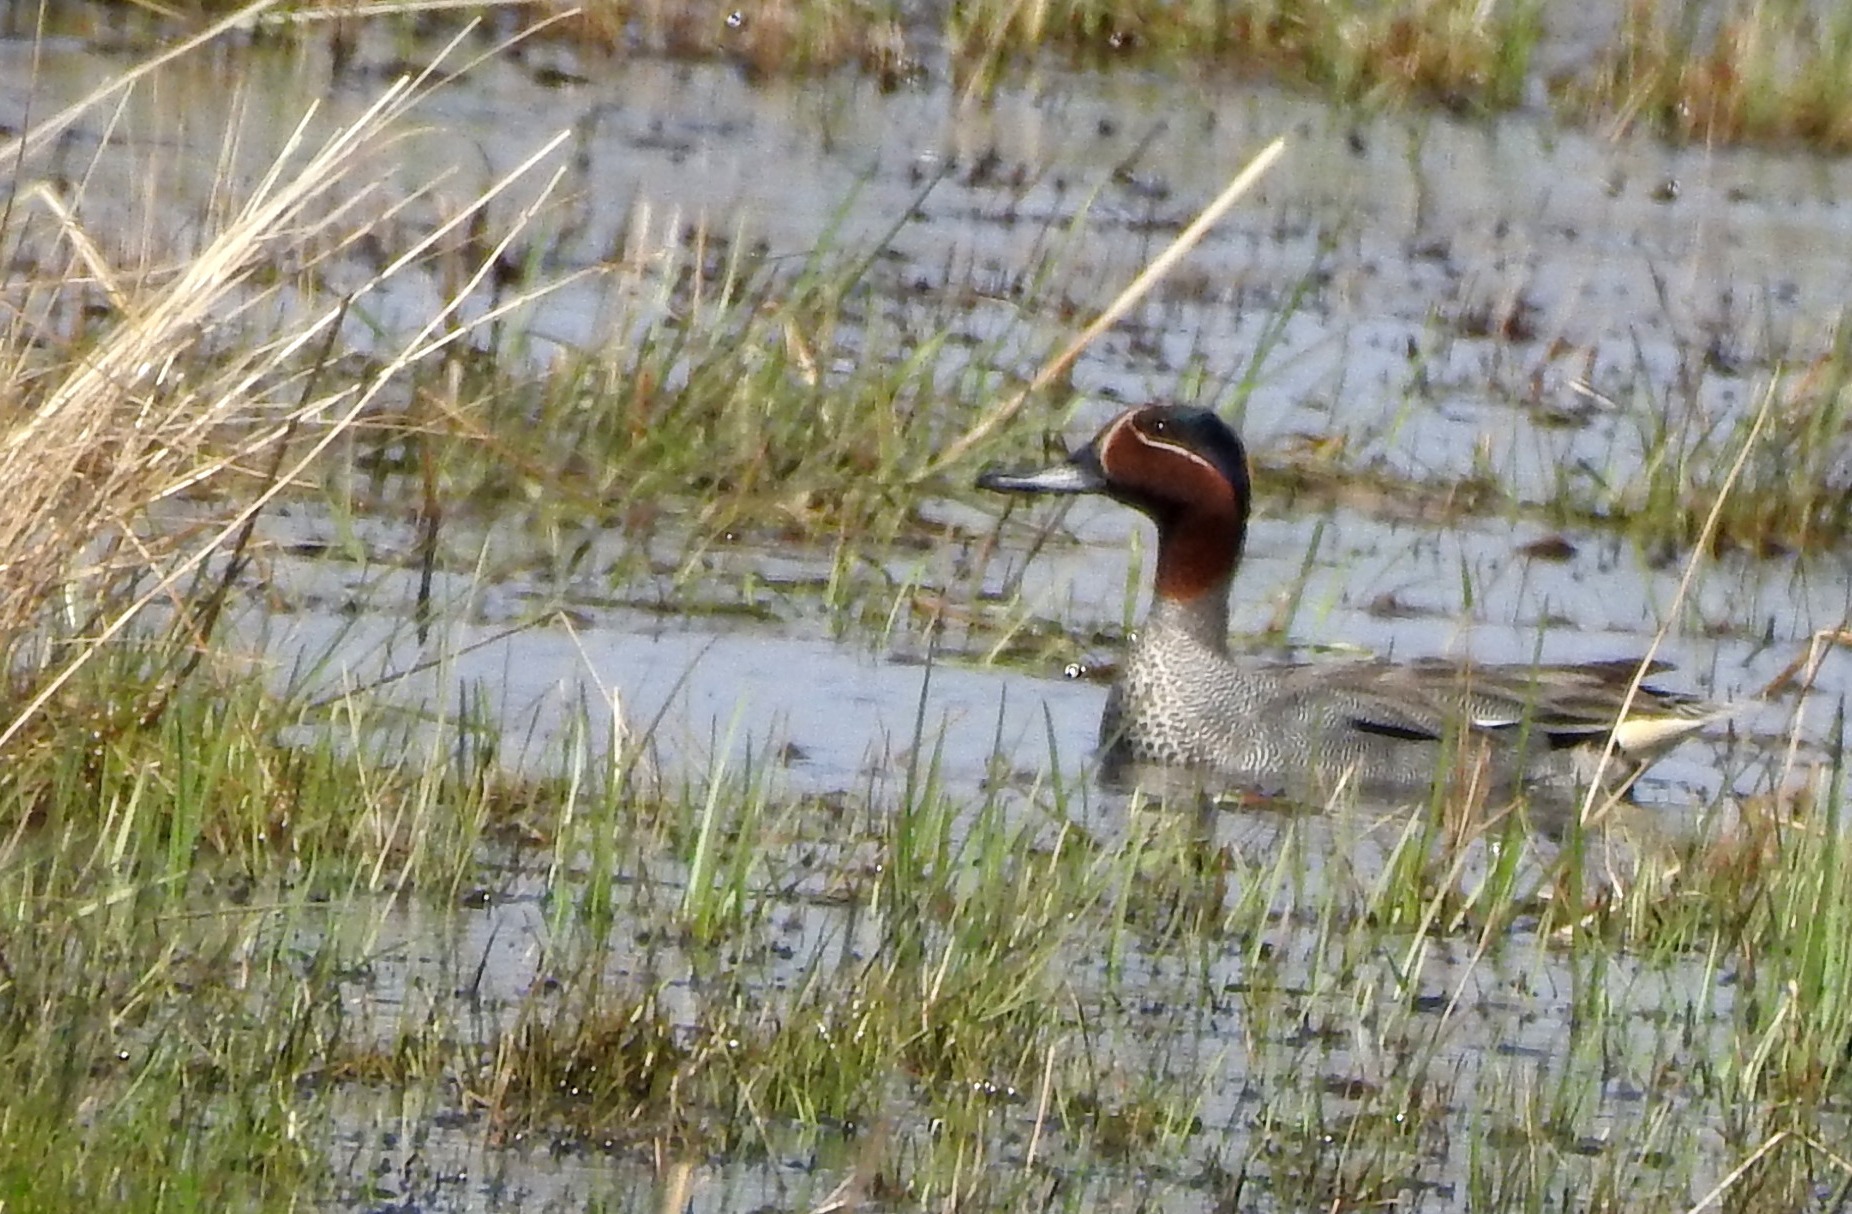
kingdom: Animalia
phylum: Chordata
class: Aves
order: Anseriformes
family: Anatidae
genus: Anas
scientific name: Anas crecca
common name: Eurasian teal
